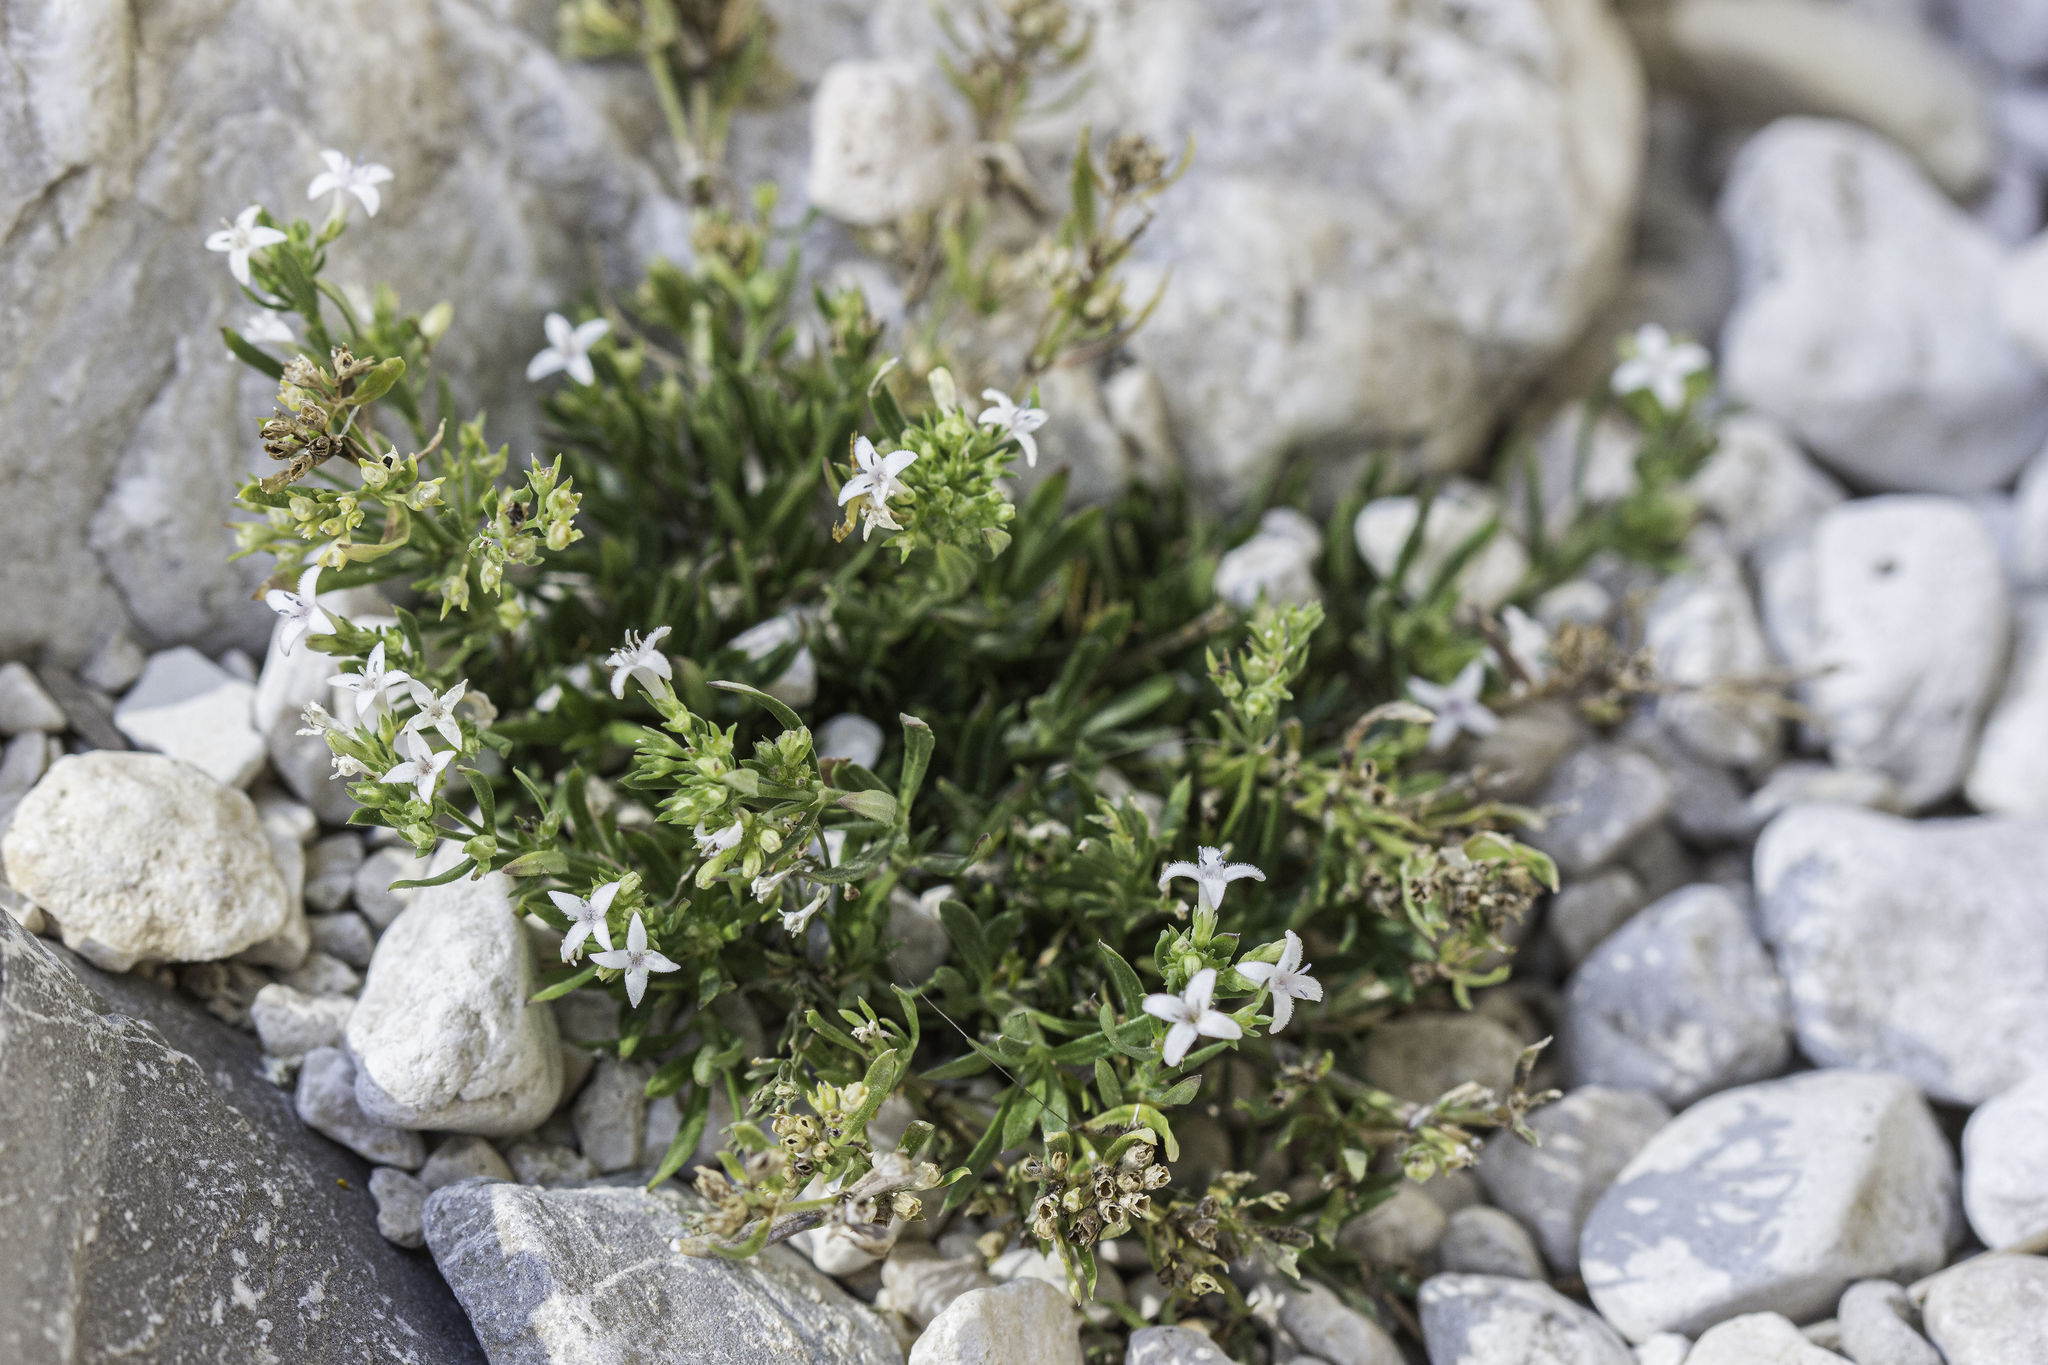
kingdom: Plantae
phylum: Tracheophyta
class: Magnoliopsida
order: Gentianales
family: Rubiaceae
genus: Stenaria
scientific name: Stenaria nigricans
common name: Diamondflowers
